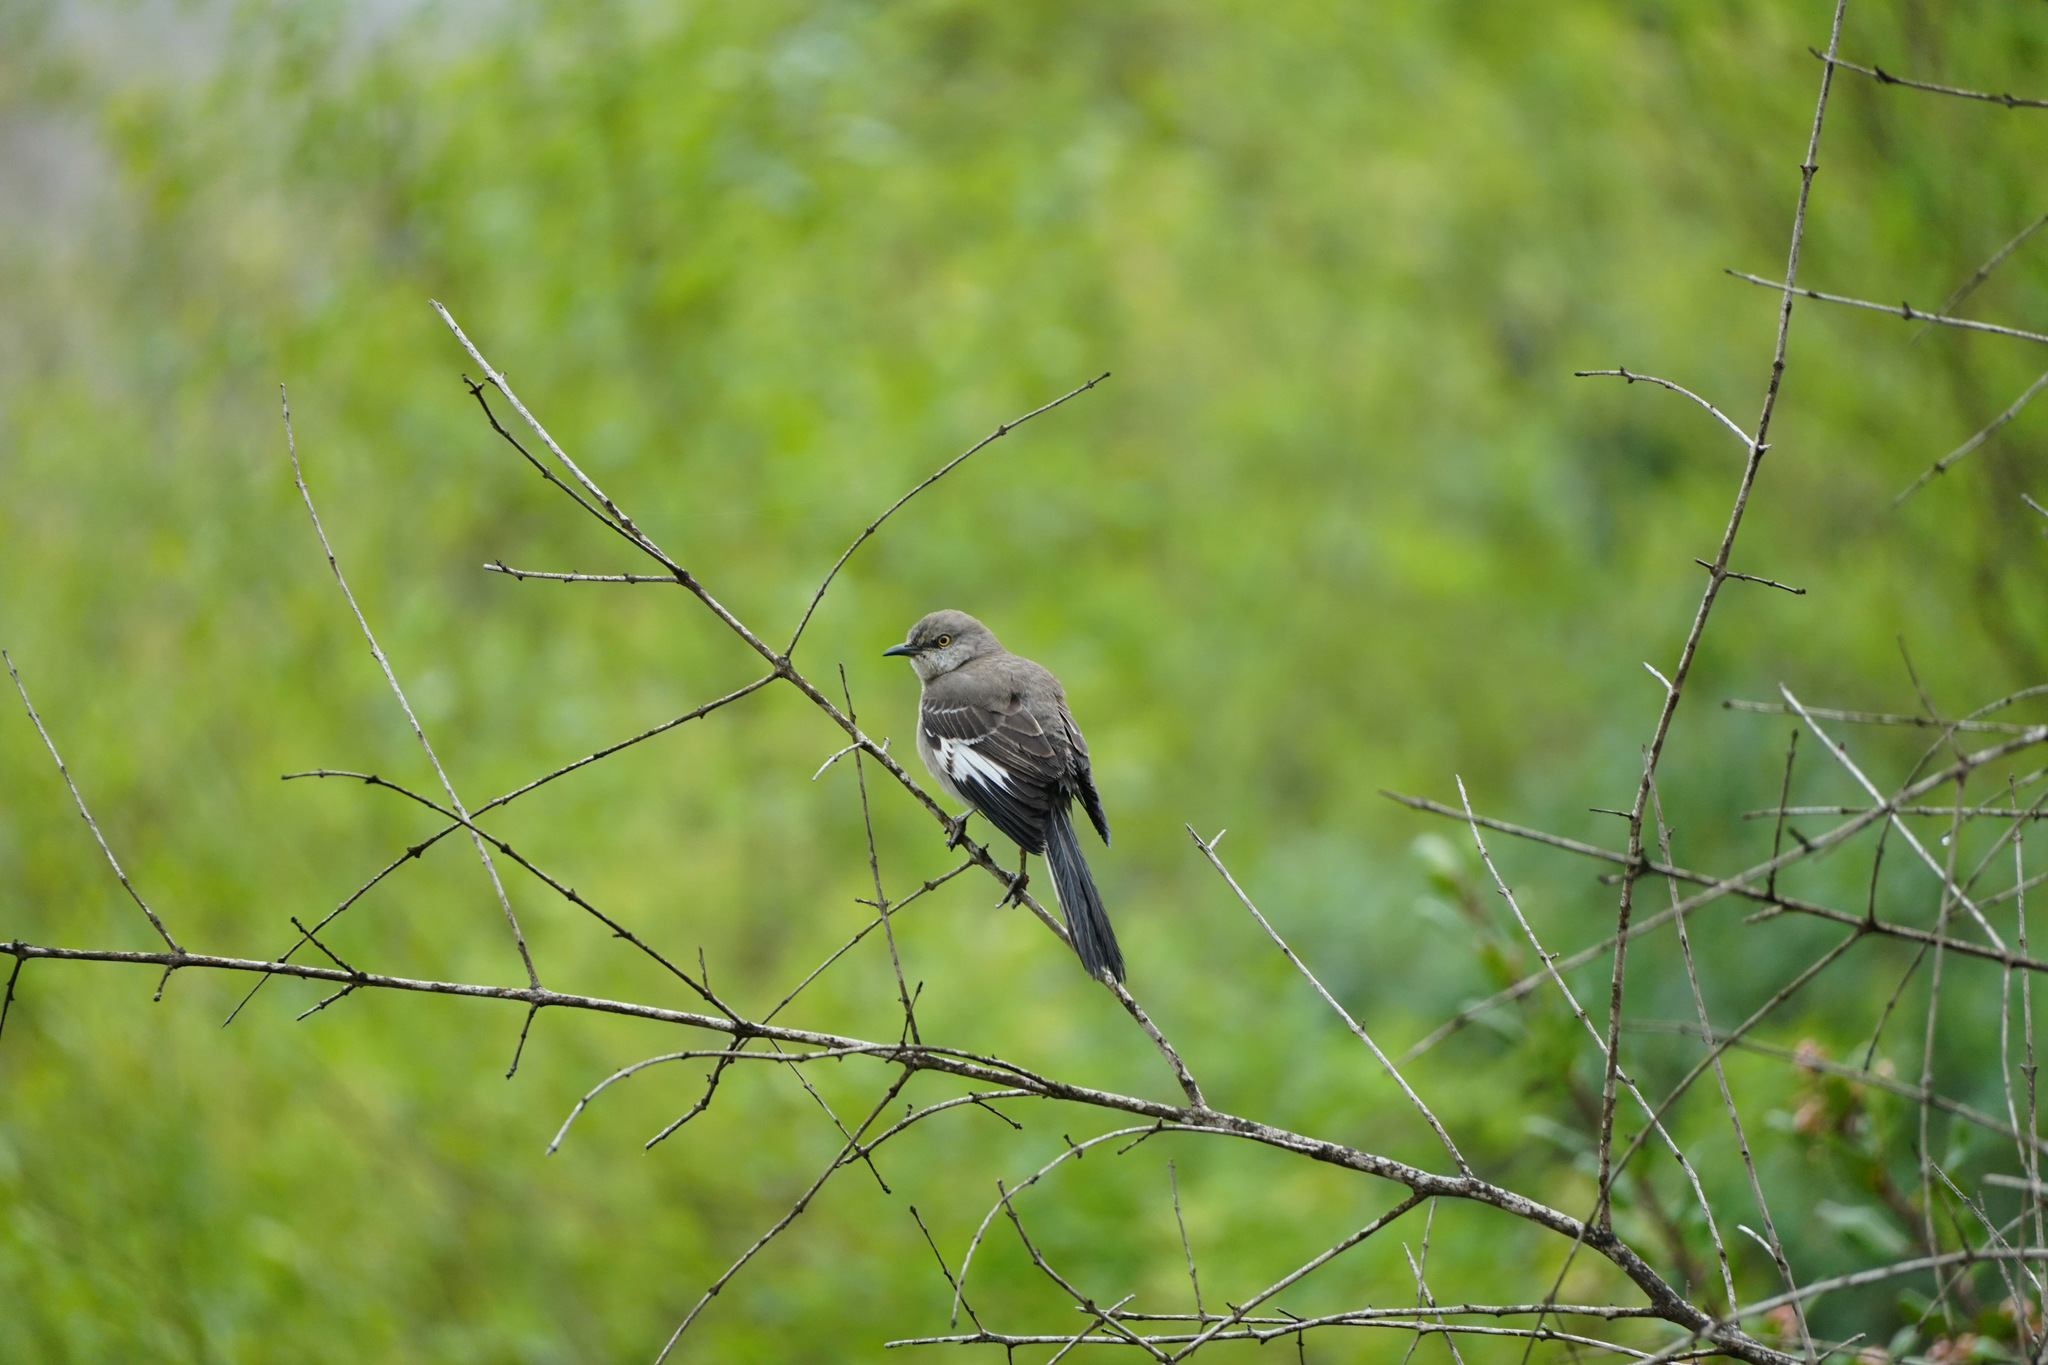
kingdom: Animalia
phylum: Chordata
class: Aves
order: Passeriformes
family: Mimidae
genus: Mimus
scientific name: Mimus polyglottos
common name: Northern mockingbird
